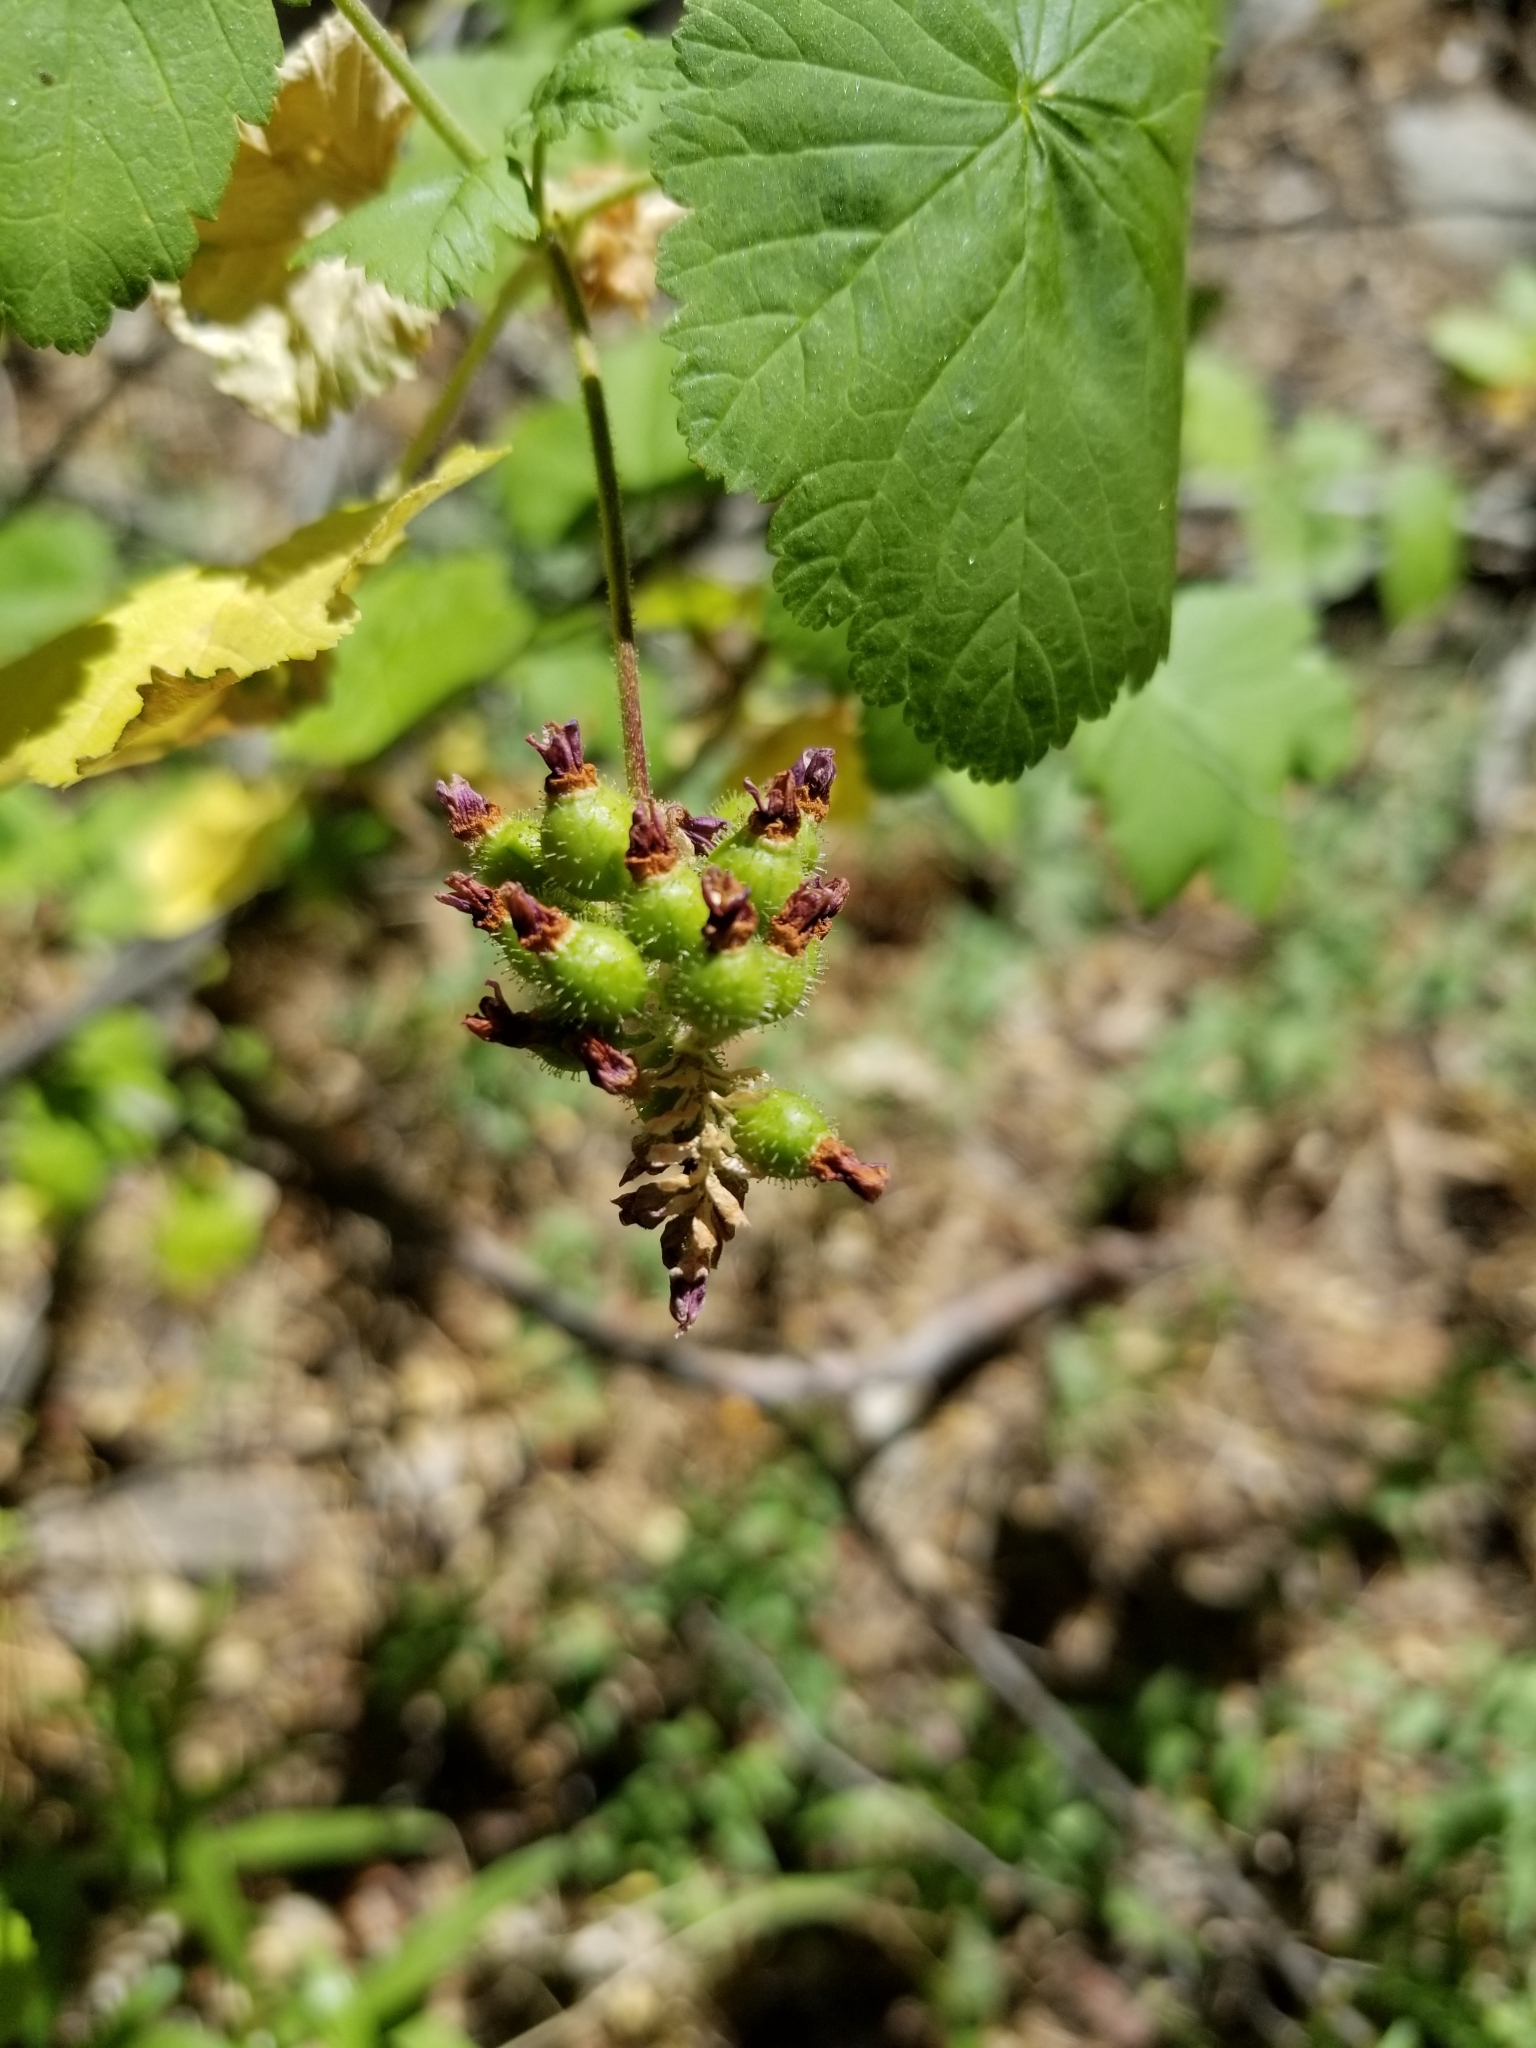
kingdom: Plantae
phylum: Tracheophyta
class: Magnoliopsida
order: Saxifragales
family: Grossulariaceae
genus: Ribes
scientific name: Ribes nevadense
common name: Mountain pink currant
